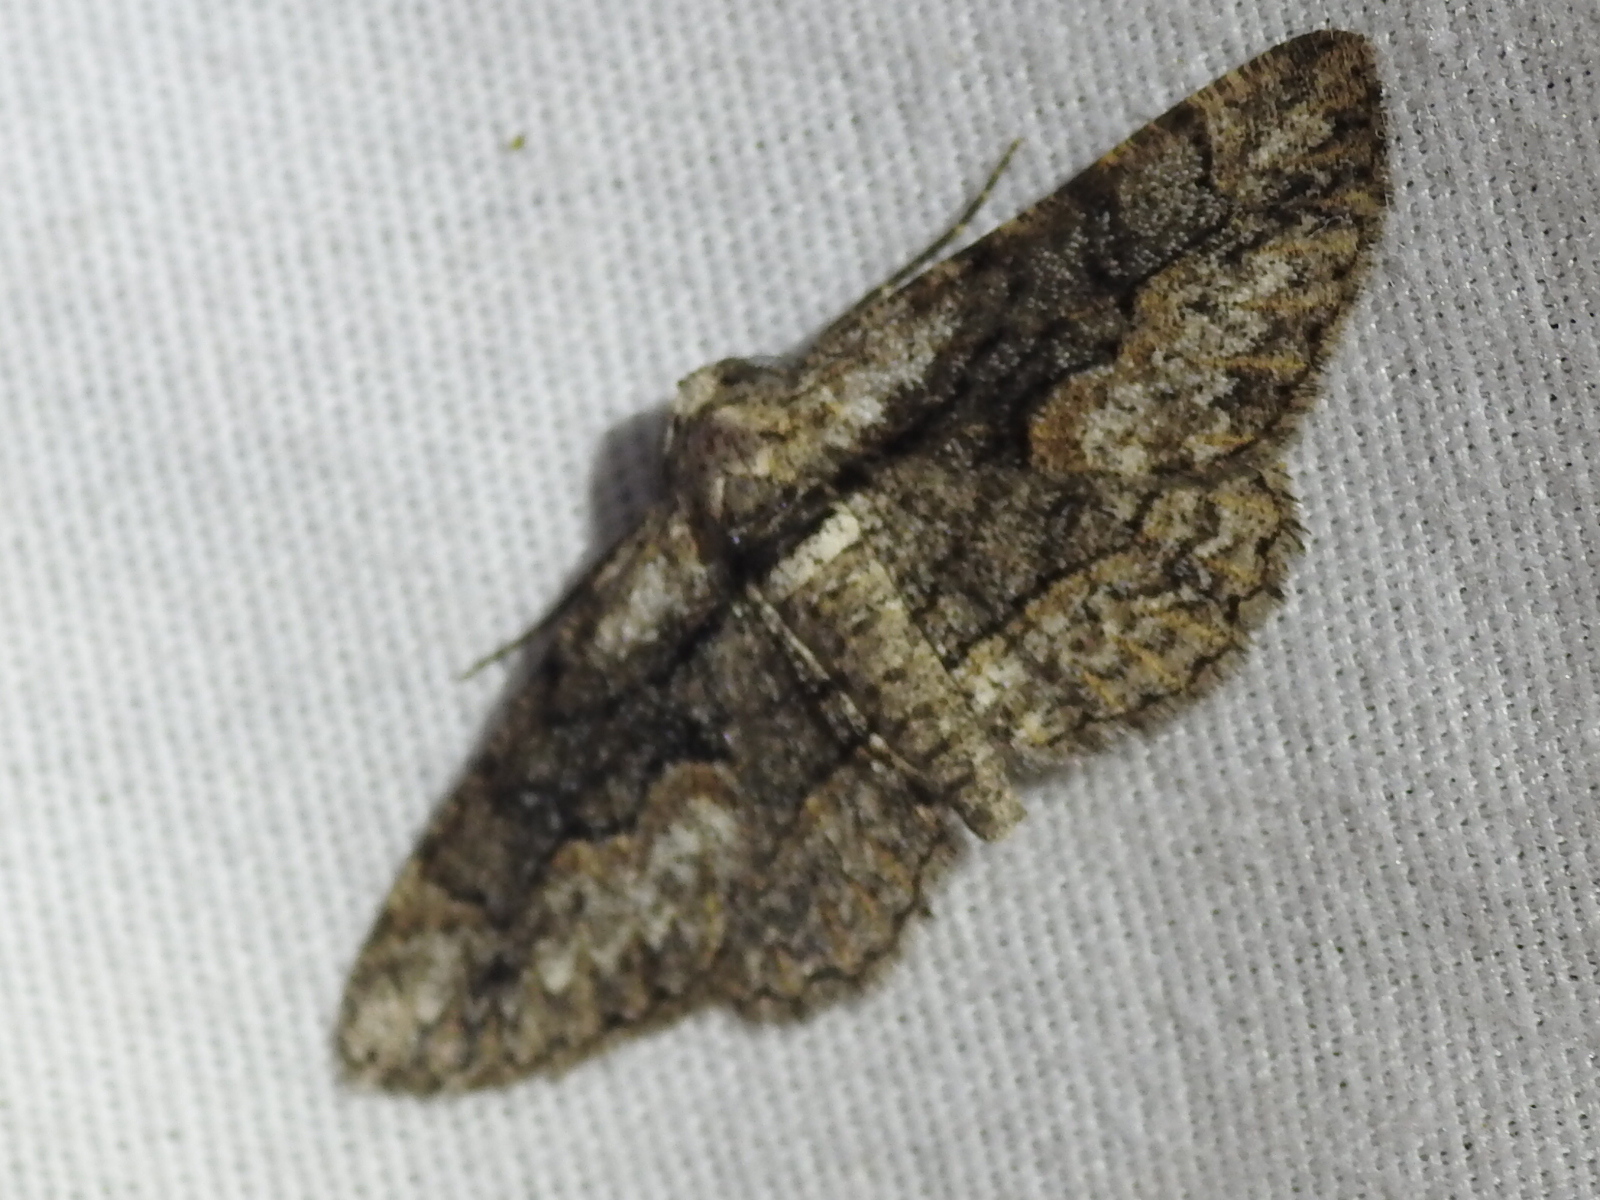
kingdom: Animalia
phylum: Arthropoda
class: Insecta
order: Lepidoptera
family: Geometridae
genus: Iridopsis
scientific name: Iridopsis dataria
